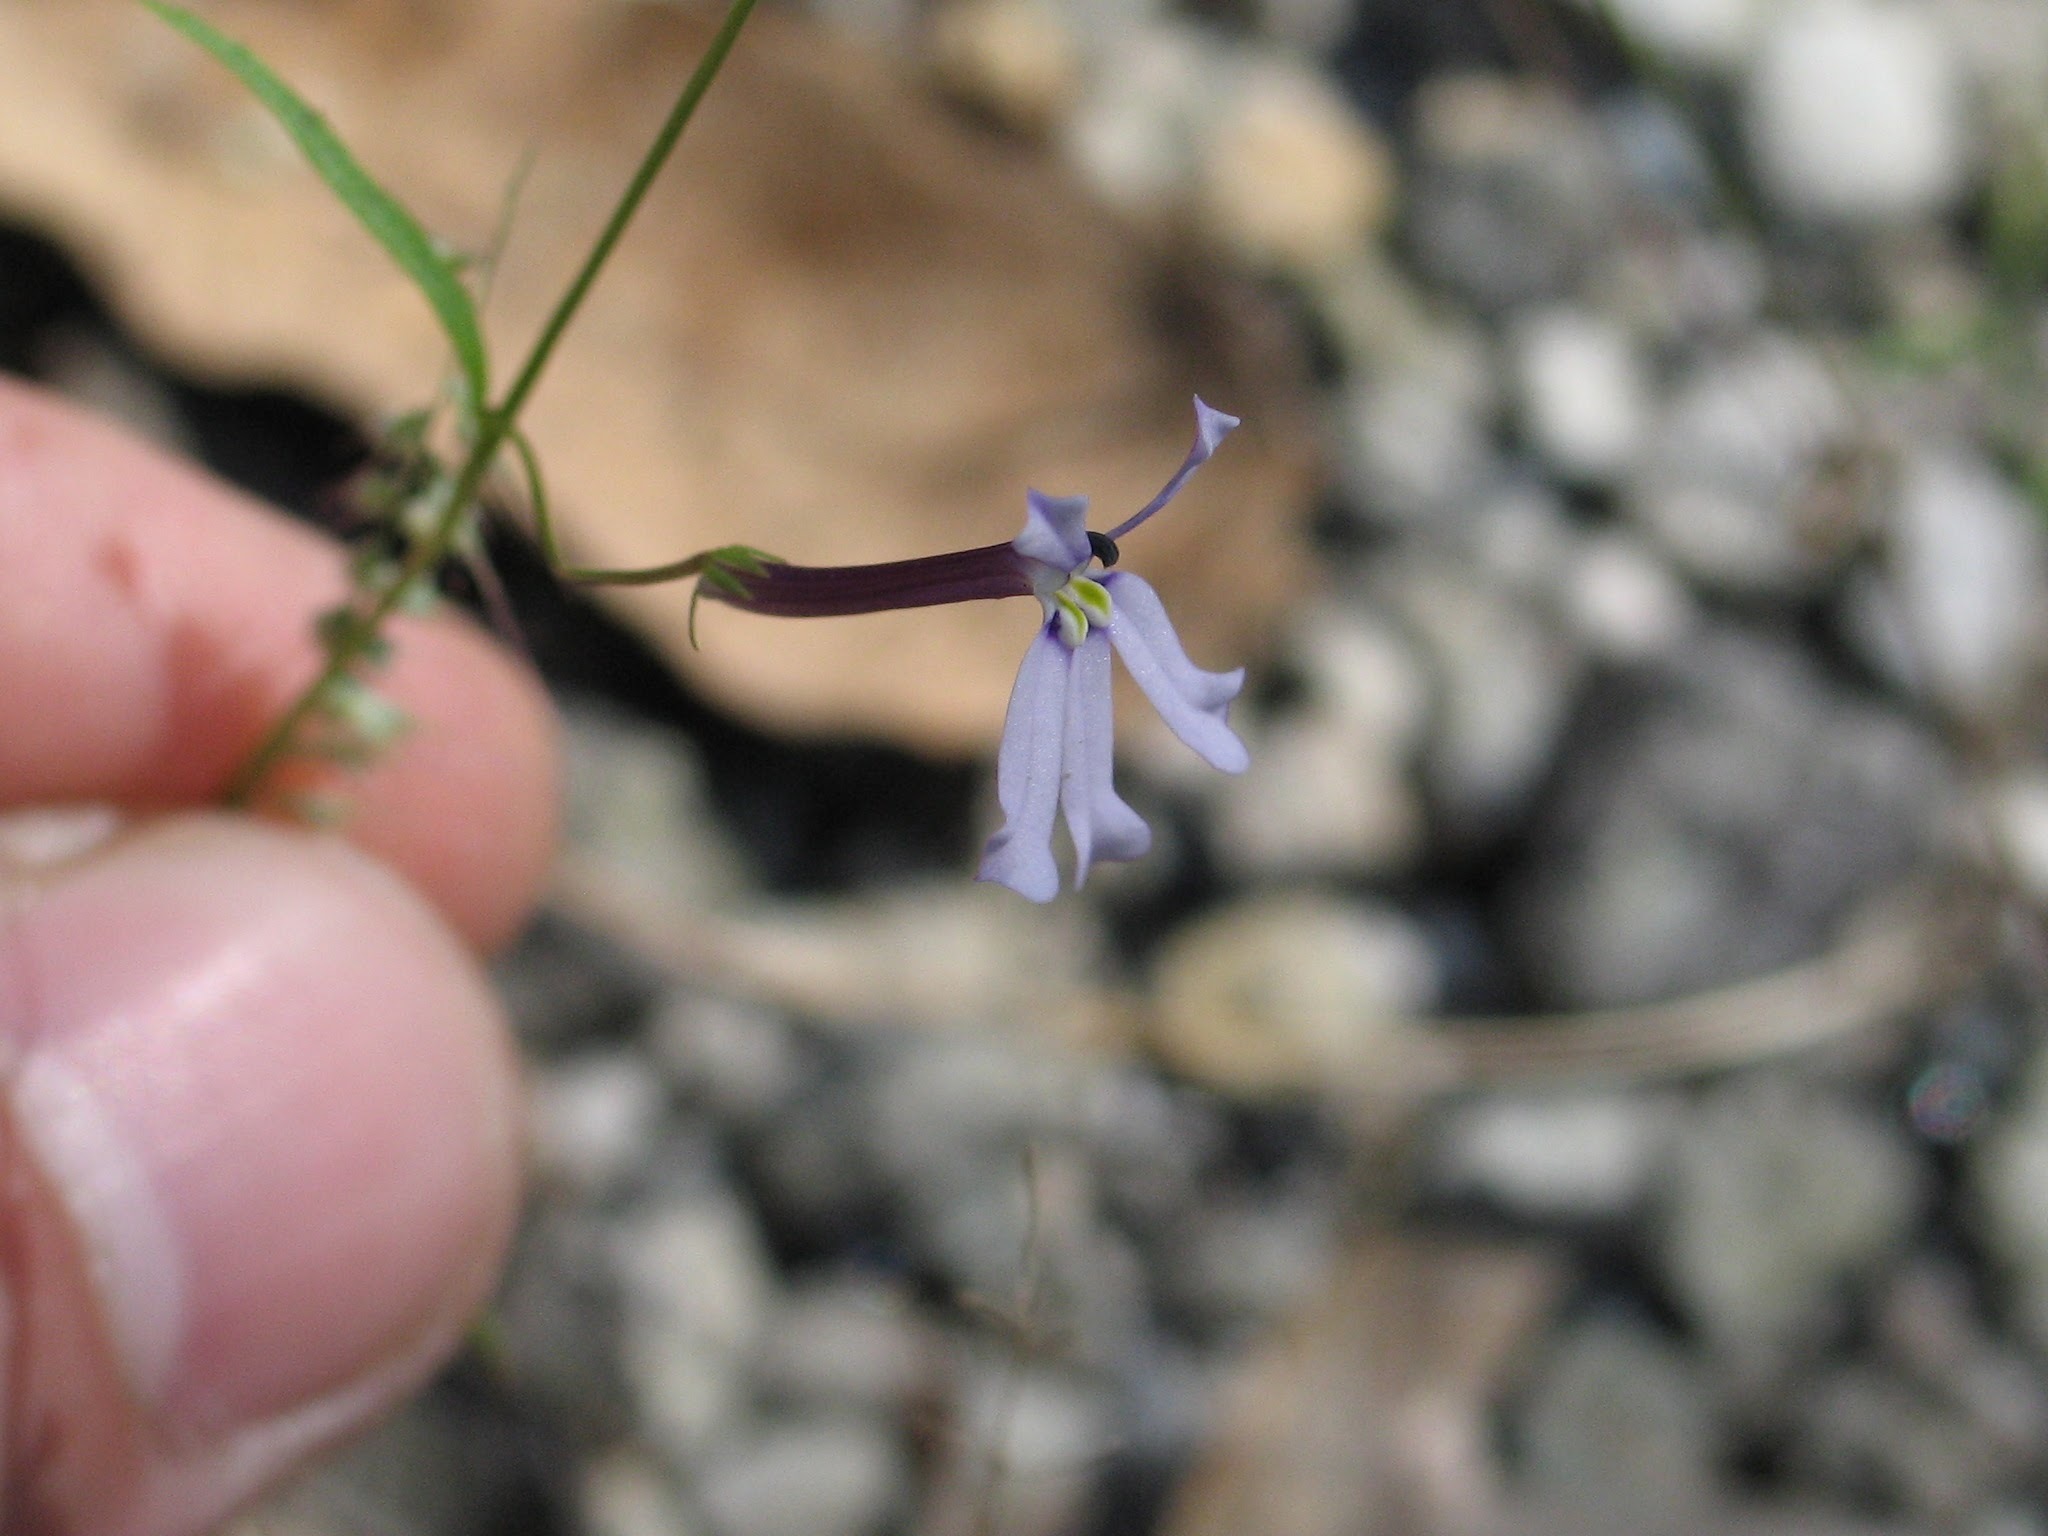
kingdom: Plantae
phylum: Tracheophyta
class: Magnoliopsida
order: Asterales
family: Campanulaceae
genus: Diastatea
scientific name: Diastatea tenera
